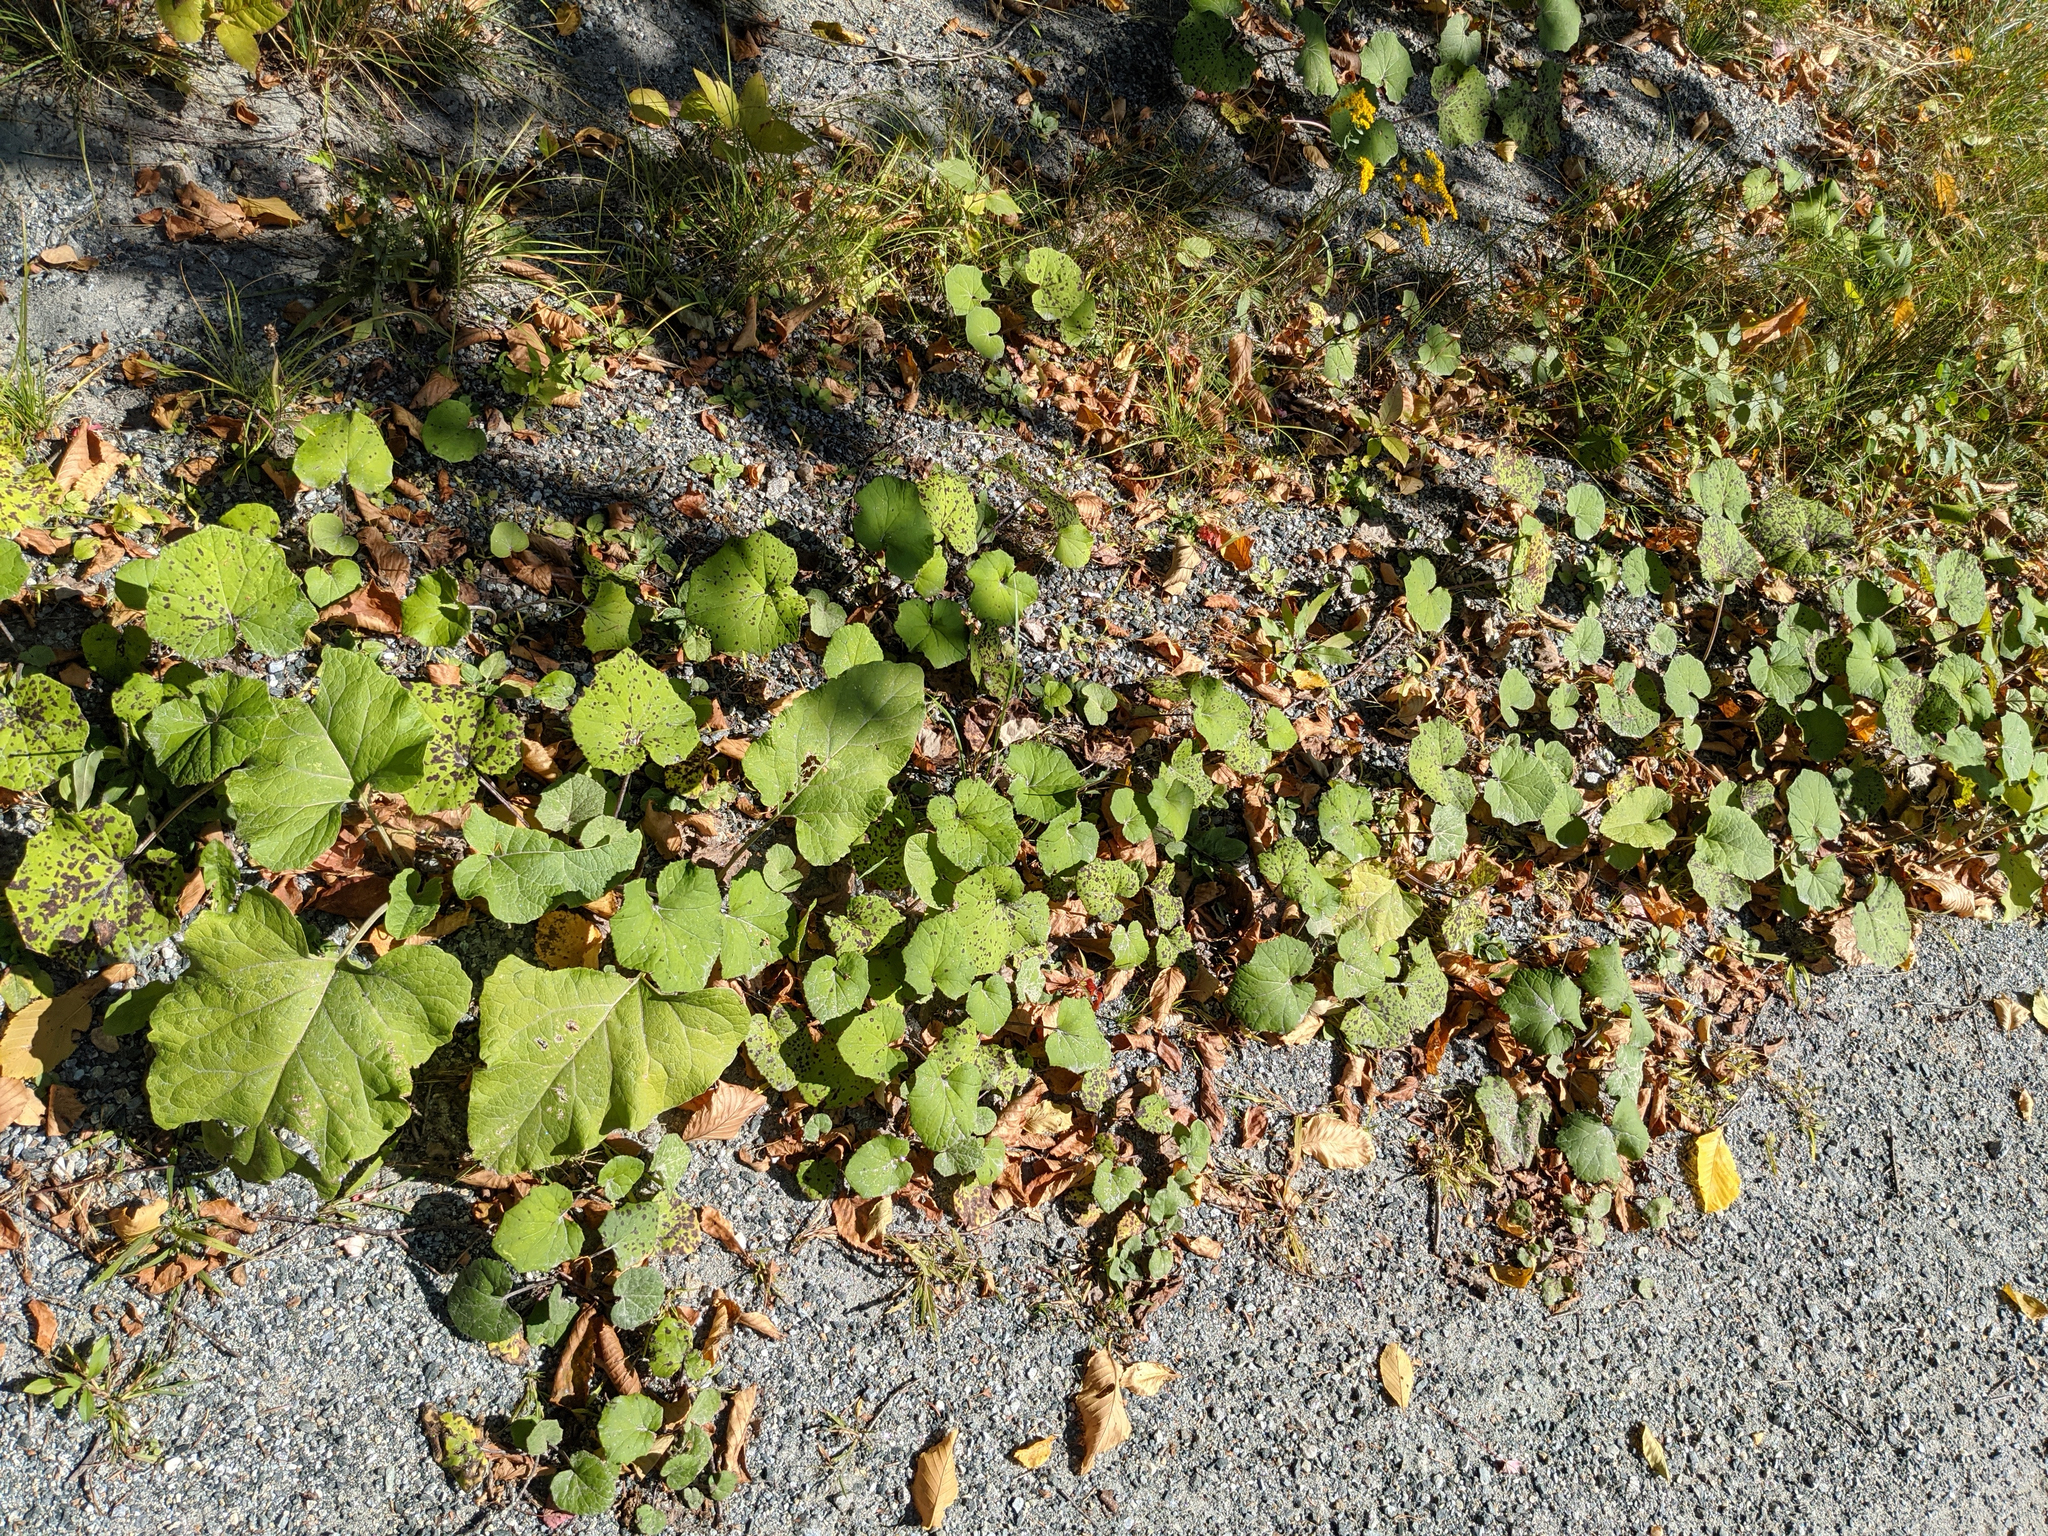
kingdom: Plantae
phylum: Tracheophyta
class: Magnoliopsida
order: Asterales
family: Asteraceae
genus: Arctium
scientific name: Arctium
